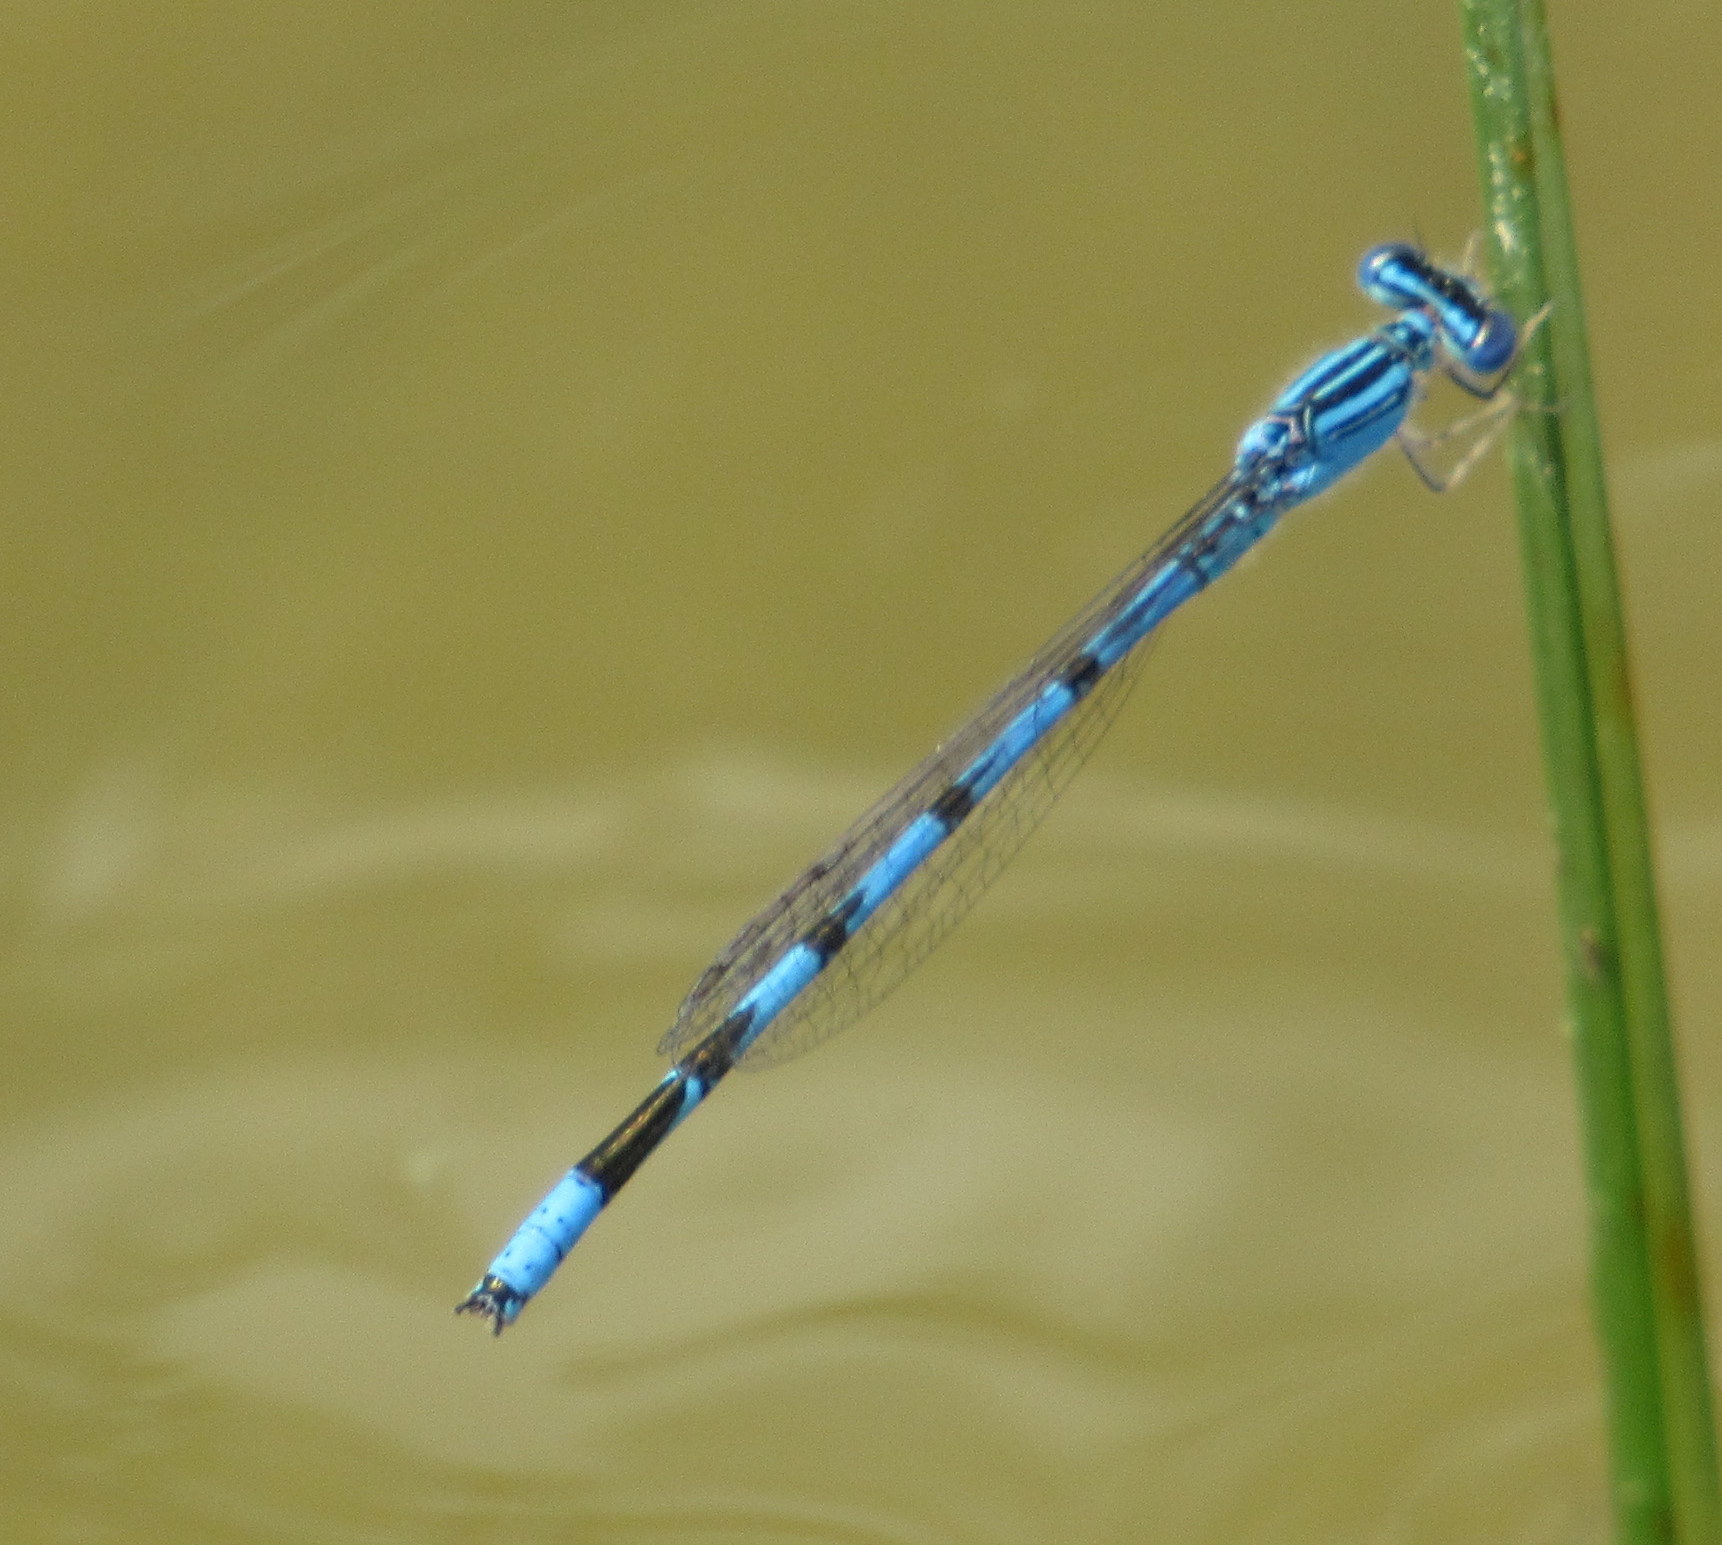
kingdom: Animalia
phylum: Arthropoda
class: Insecta
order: Odonata
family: Coenagrionidae
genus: Enallagma
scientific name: Enallagma basidens
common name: Double-striped bluet
